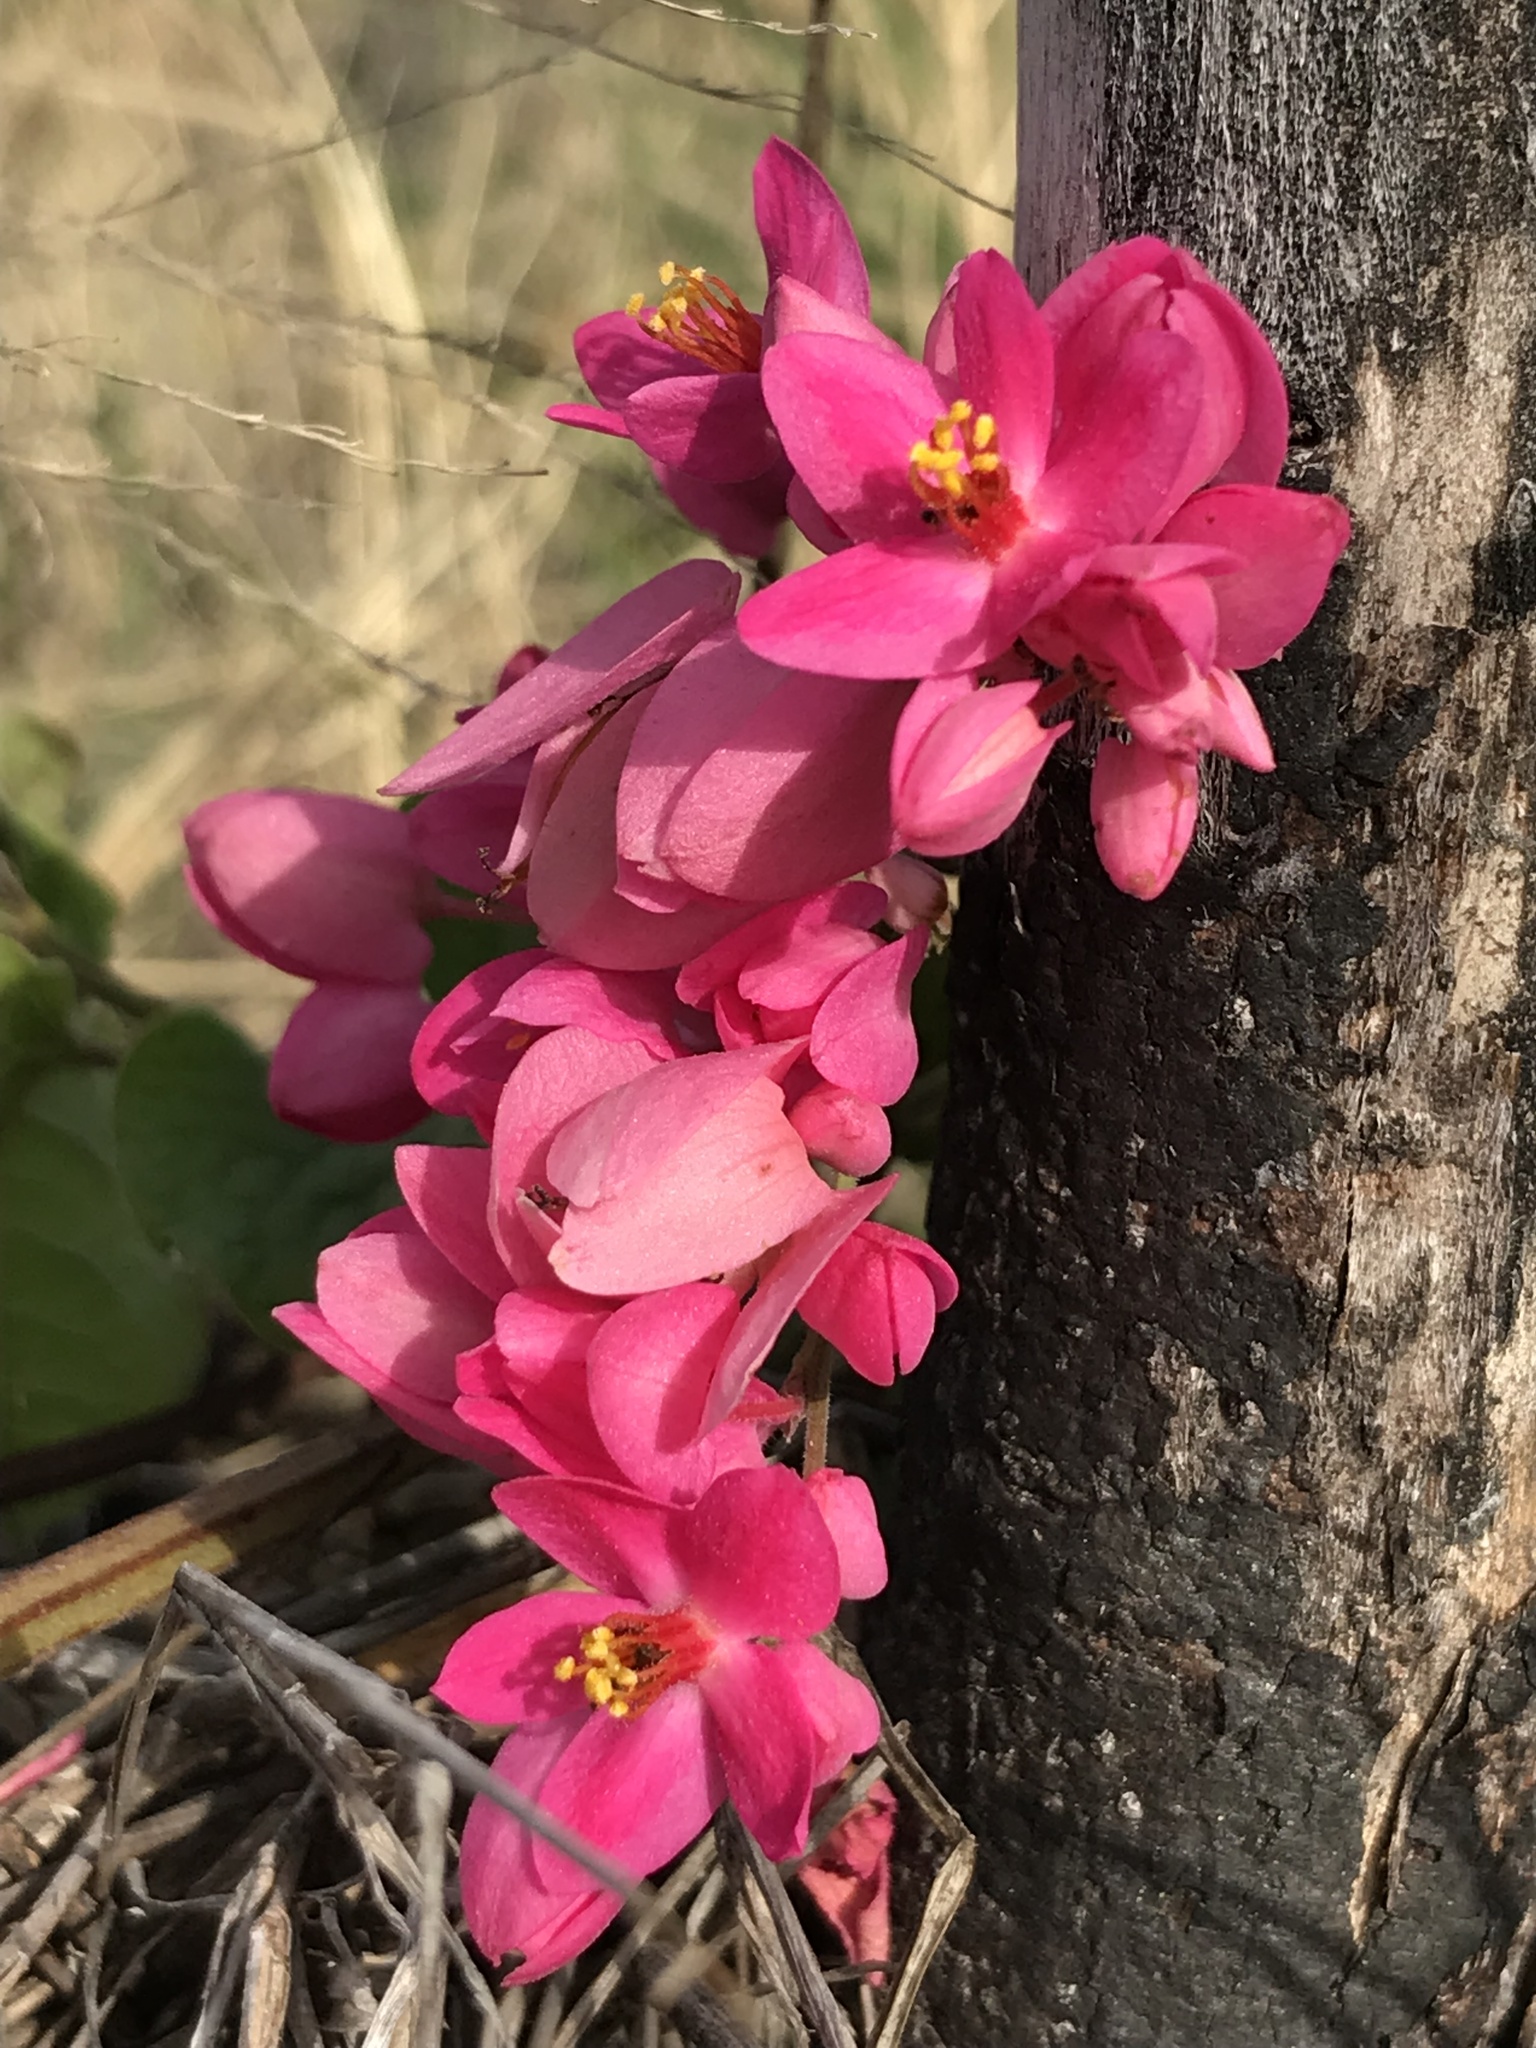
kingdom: Plantae
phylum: Tracheophyta
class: Magnoliopsida
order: Caryophyllales
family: Polygonaceae
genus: Antigonon
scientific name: Antigonon leptopus
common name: Coral vine
